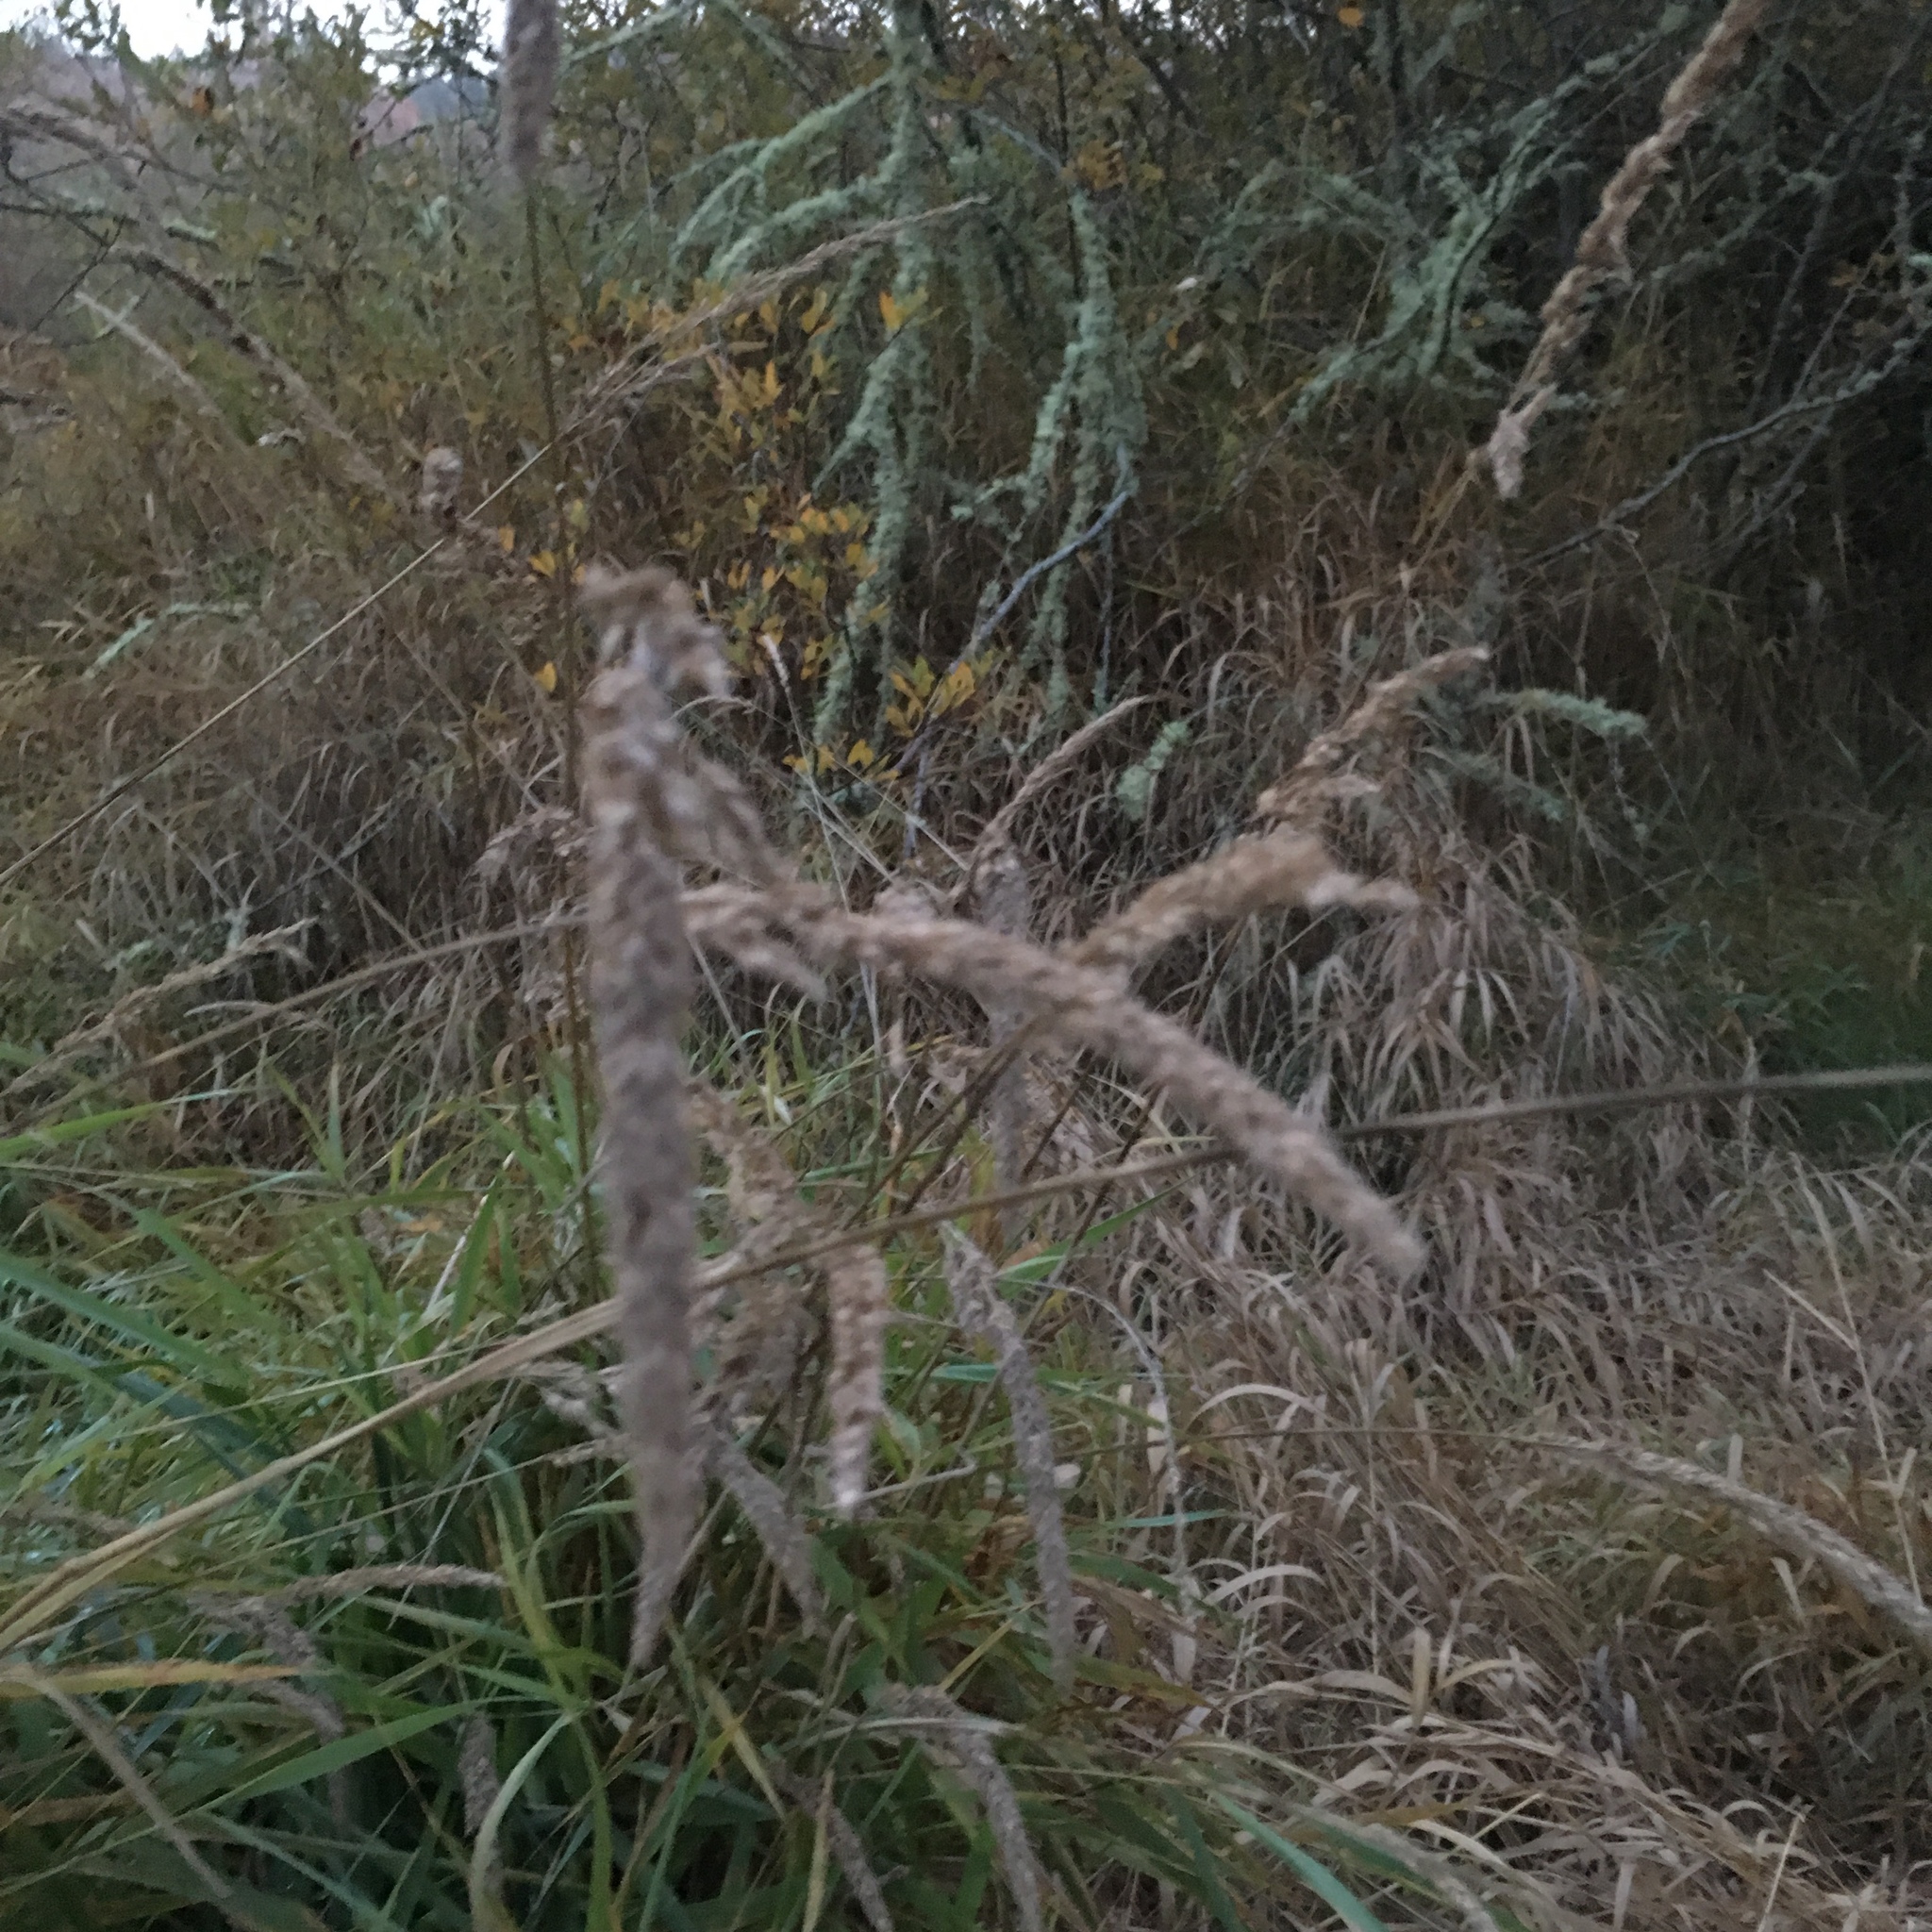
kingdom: Plantae
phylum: Tracheophyta
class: Liliopsida
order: Poales
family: Poaceae
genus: Phalaris
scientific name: Phalaris arundinacea
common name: Reed canary-grass
